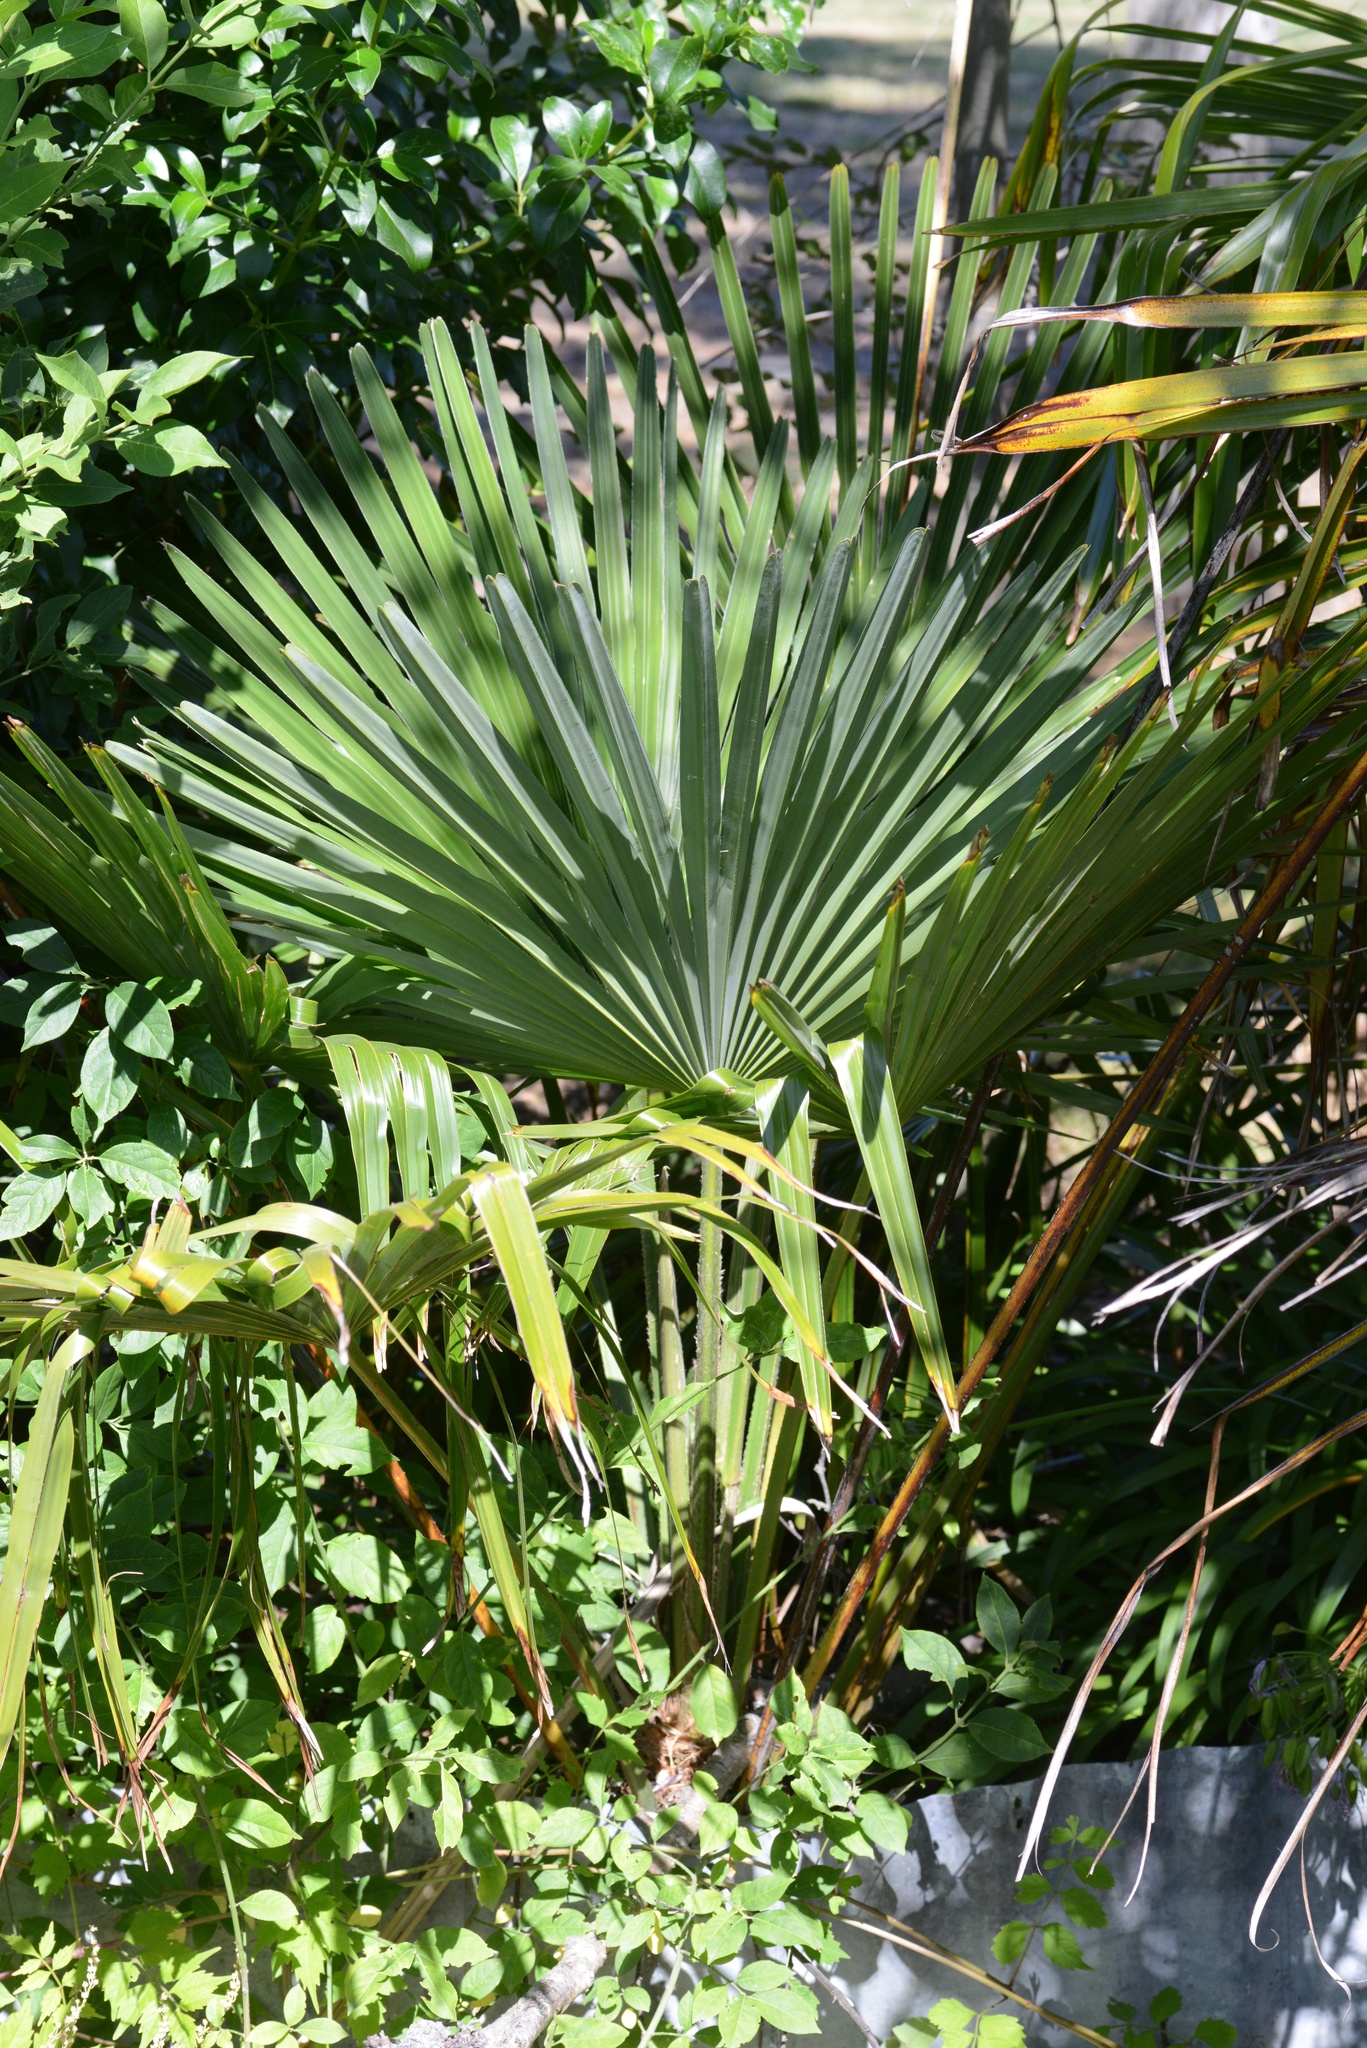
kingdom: Plantae
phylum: Tracheophyta
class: Liliopsida
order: Arecales
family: Arecaceae
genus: Trachycarpus
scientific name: Trachycarpus fortunei
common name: Chusan palm
